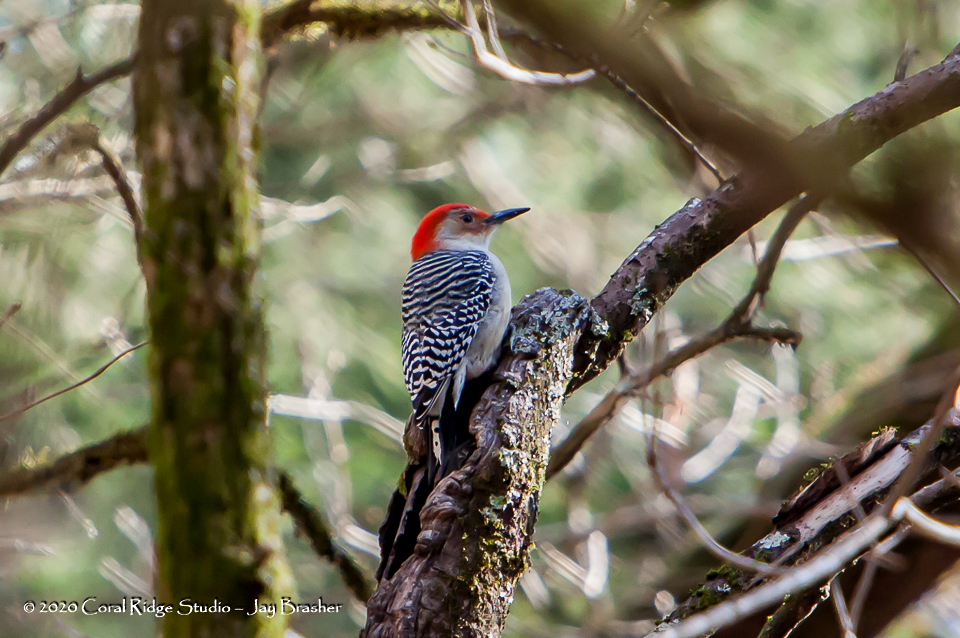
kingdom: Animalia
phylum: Chordata
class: Aves
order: Piciformes
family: Picidae
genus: Melanerpes
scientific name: Melanerpes carolinus
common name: Red-bellied woodpecker
